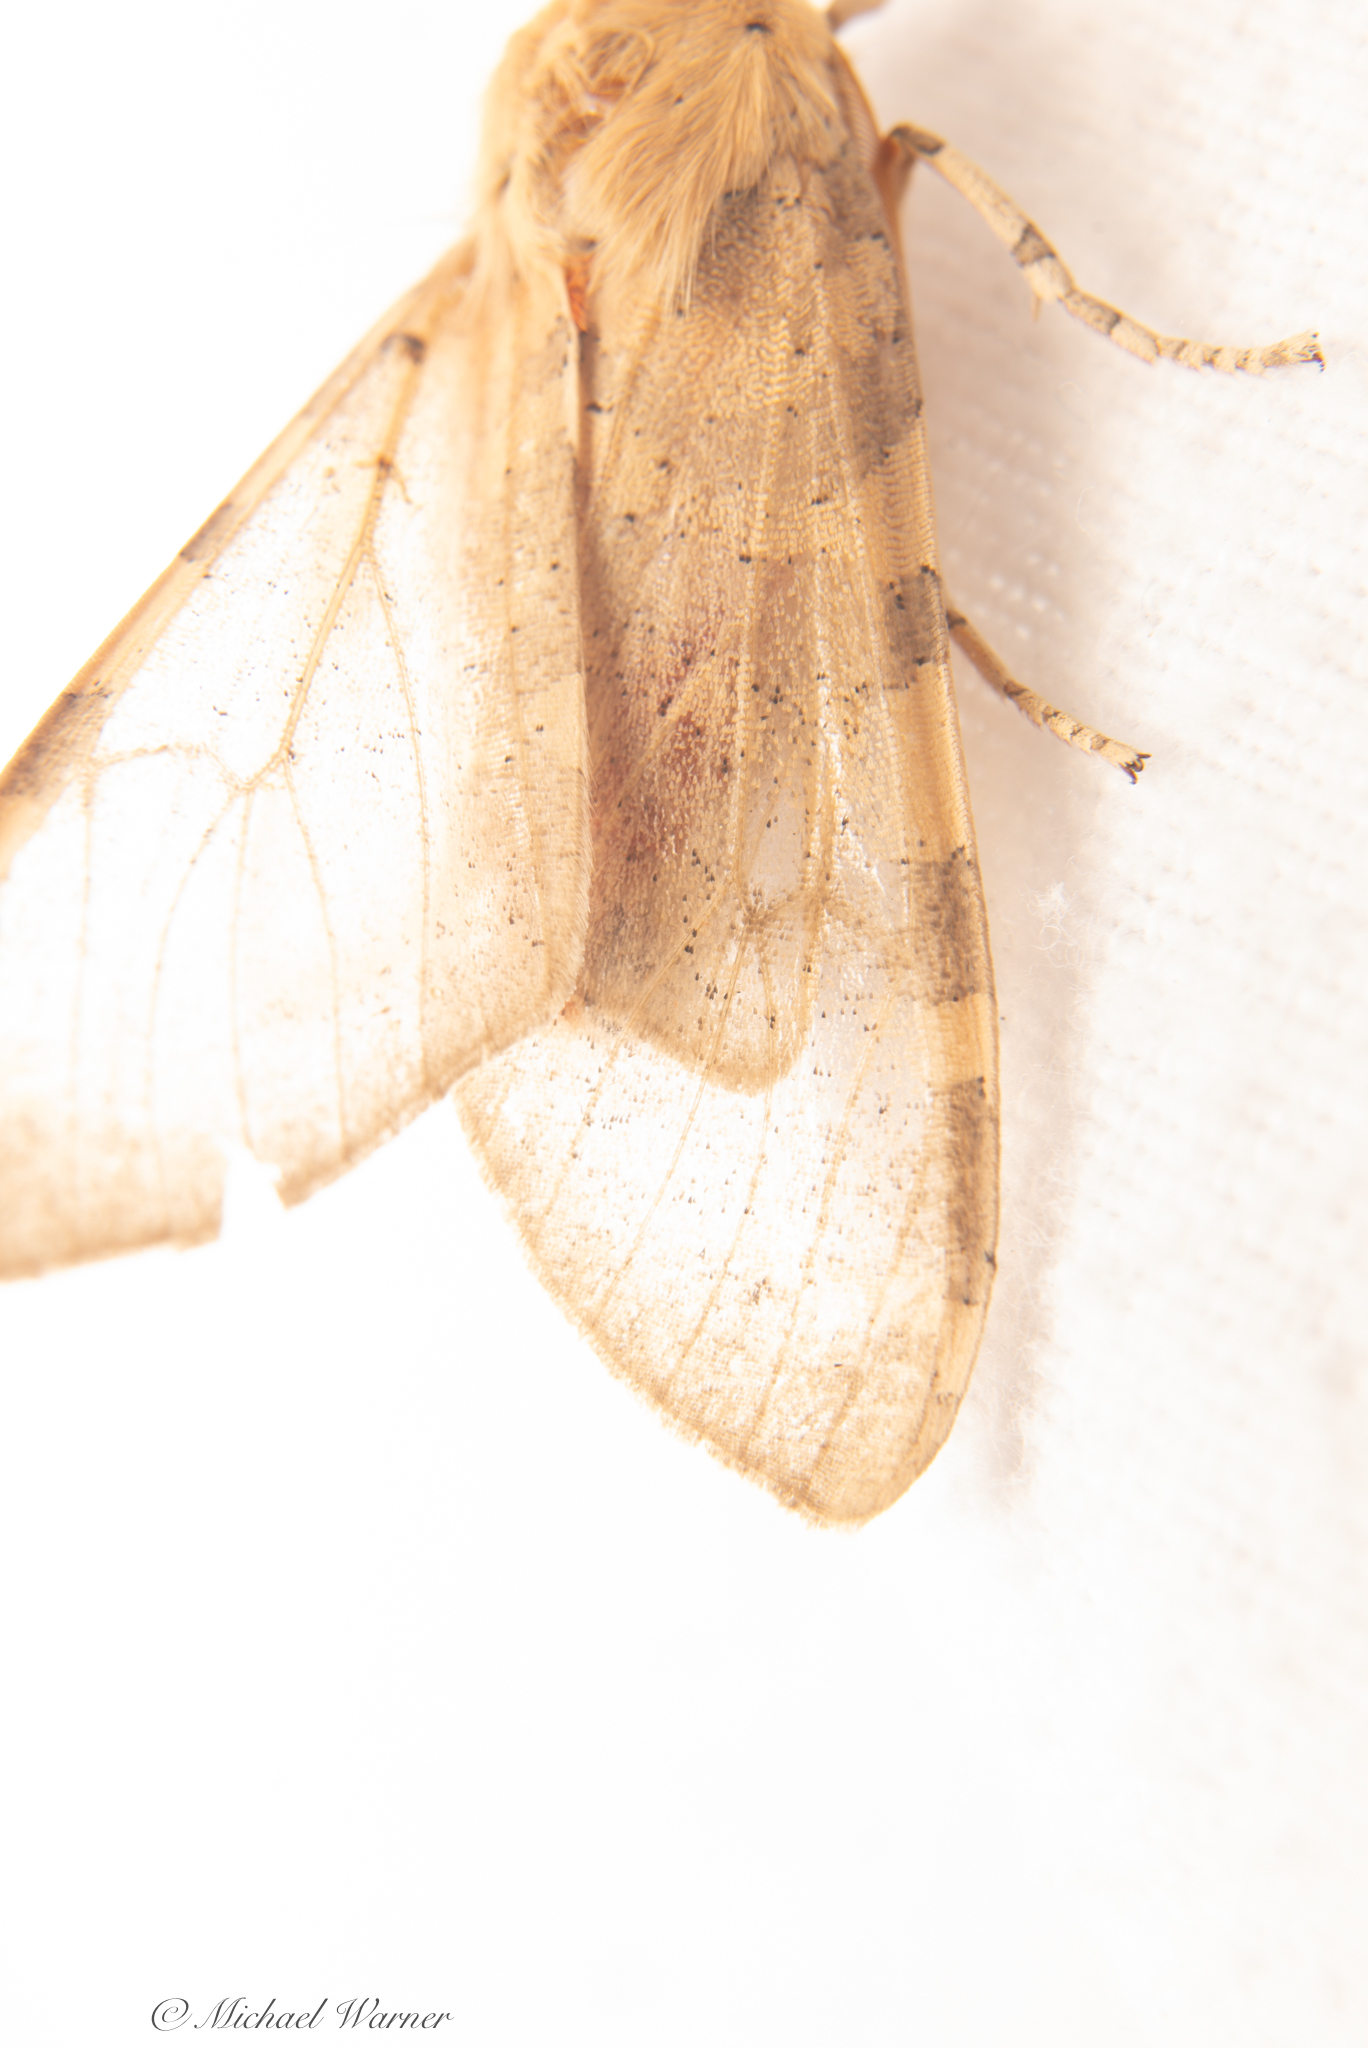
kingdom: Animalia
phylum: Arthropoda
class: Insecta
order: Lepidoptera
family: Erebidae
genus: Hemihyalea
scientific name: Hemihyalea edwardsii
